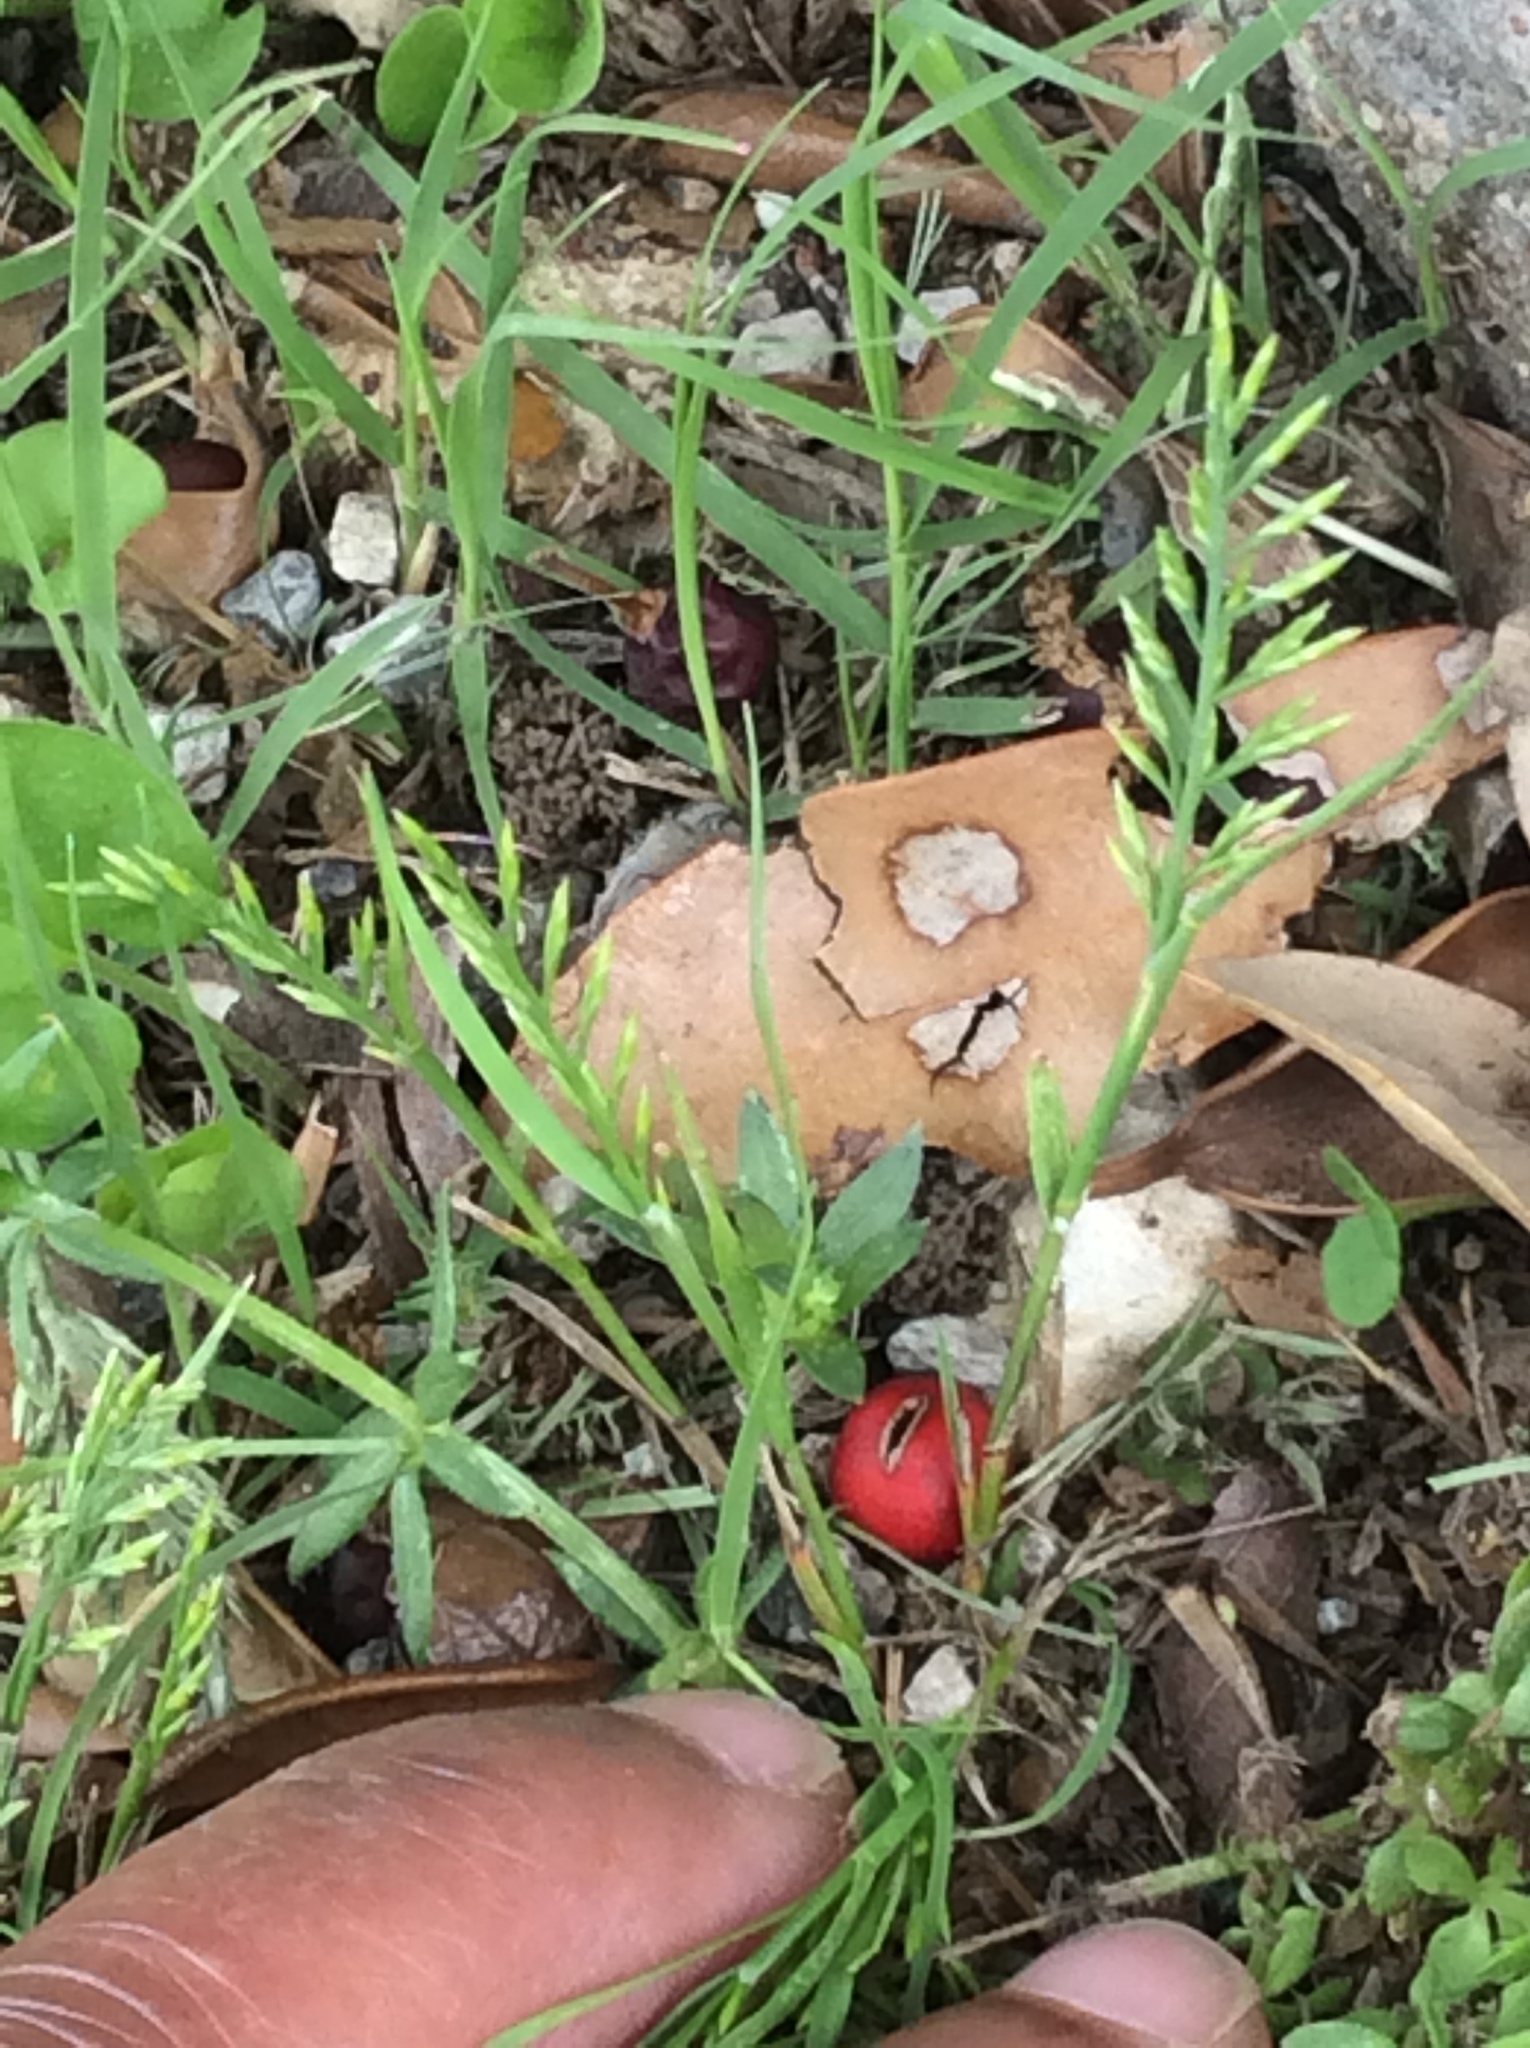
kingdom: Plantae
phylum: Tracheophyta
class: Liliopsida
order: Poales
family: Poaceae
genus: Catapodium
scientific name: Catapodium rigidum
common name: Fern-grass
